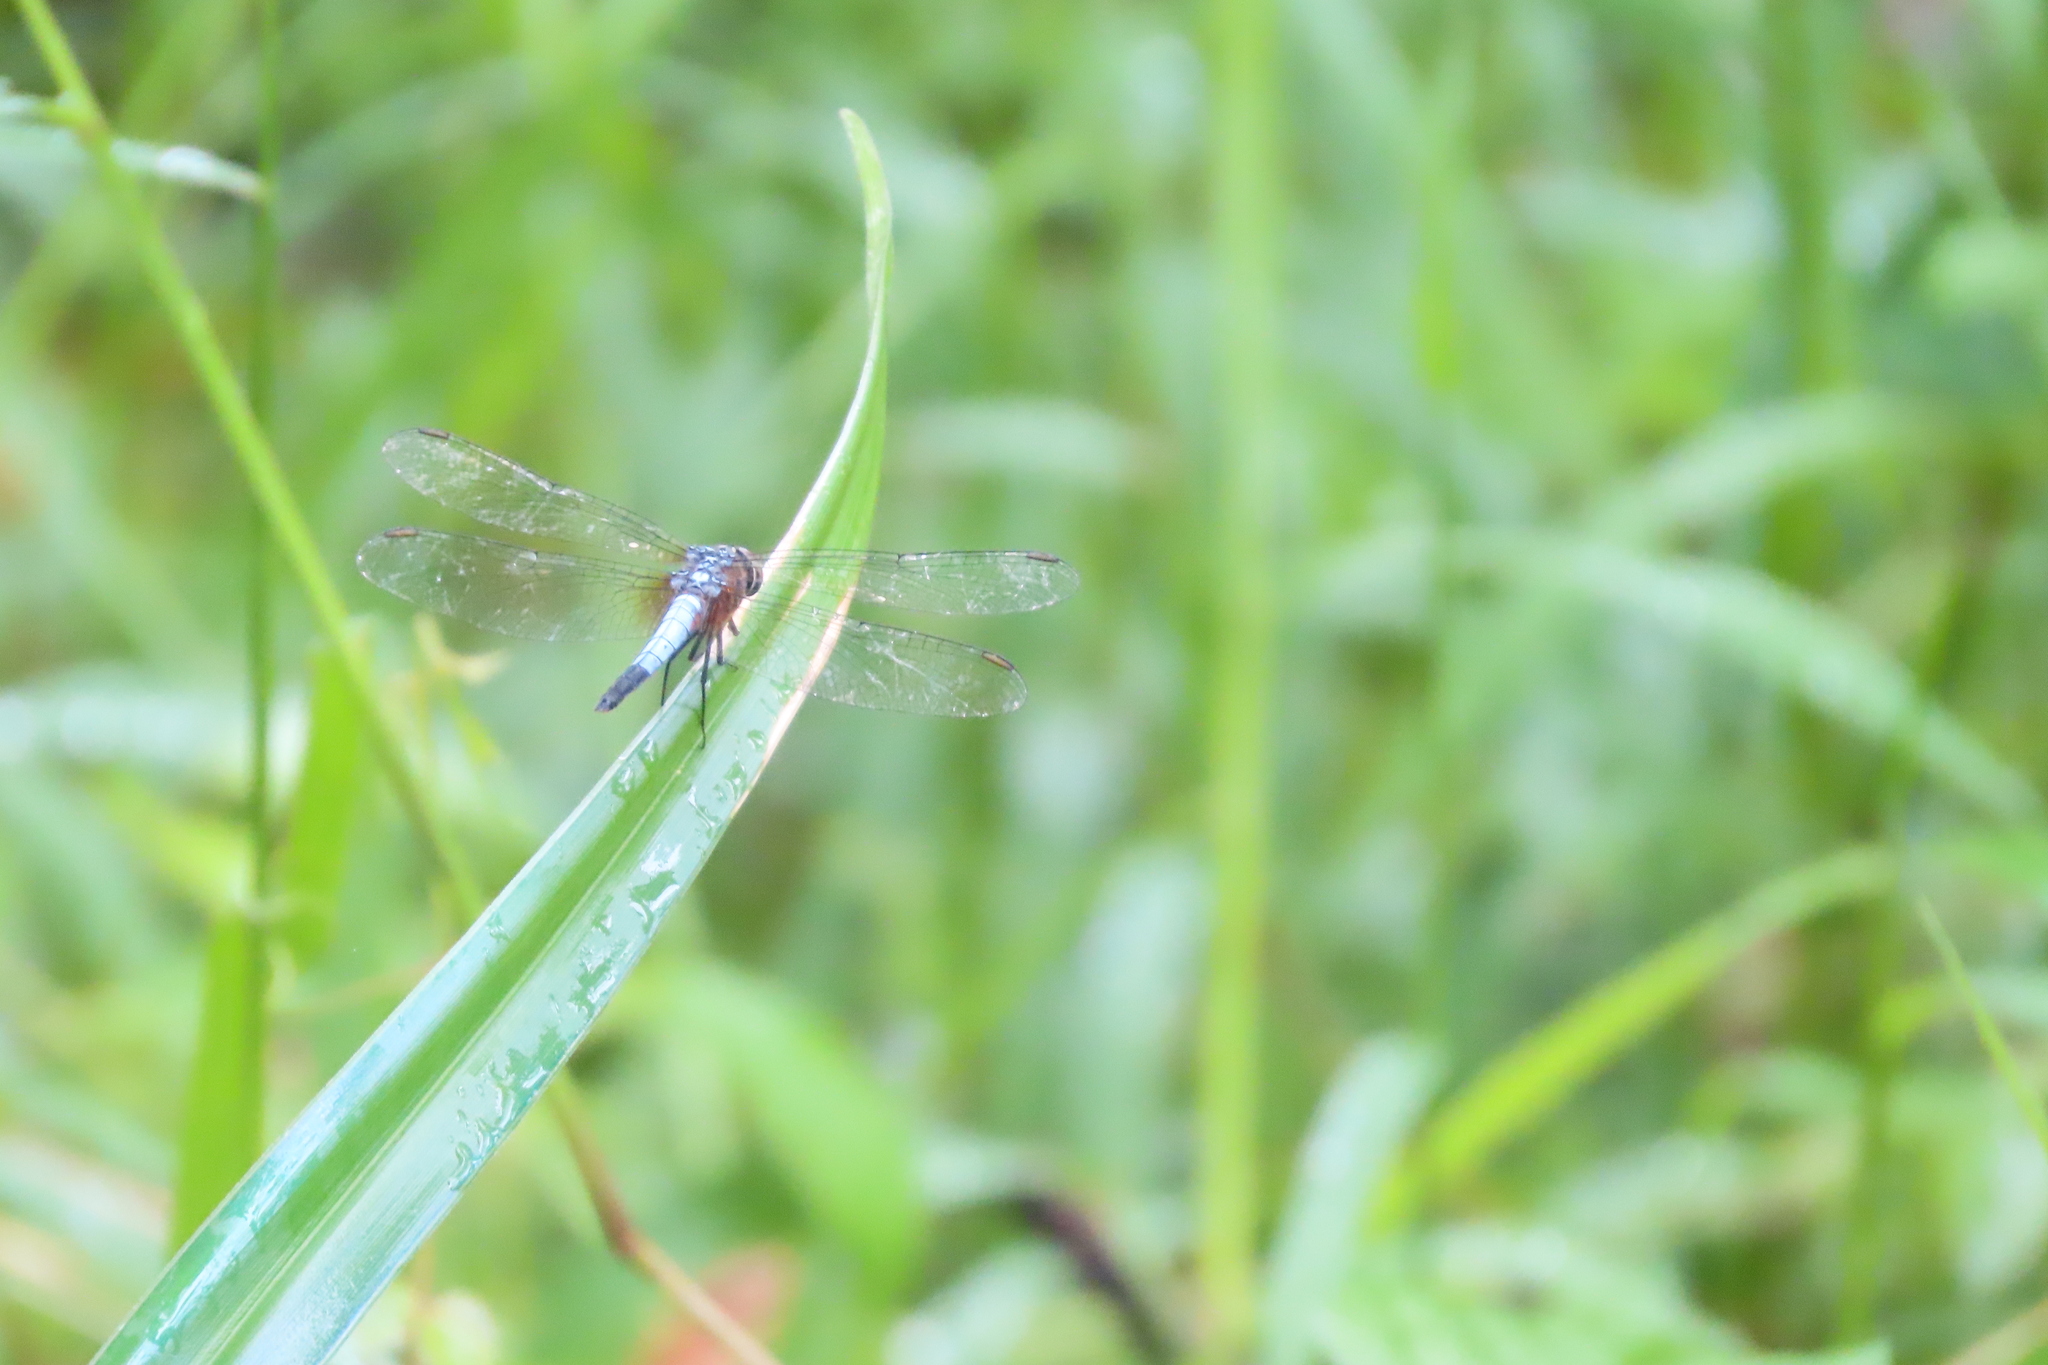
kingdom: Animalia
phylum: Arthropoda
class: Insecta
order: Odonata
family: Libellulidae
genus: Brachydiplax
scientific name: Brachydiplax chalybea
